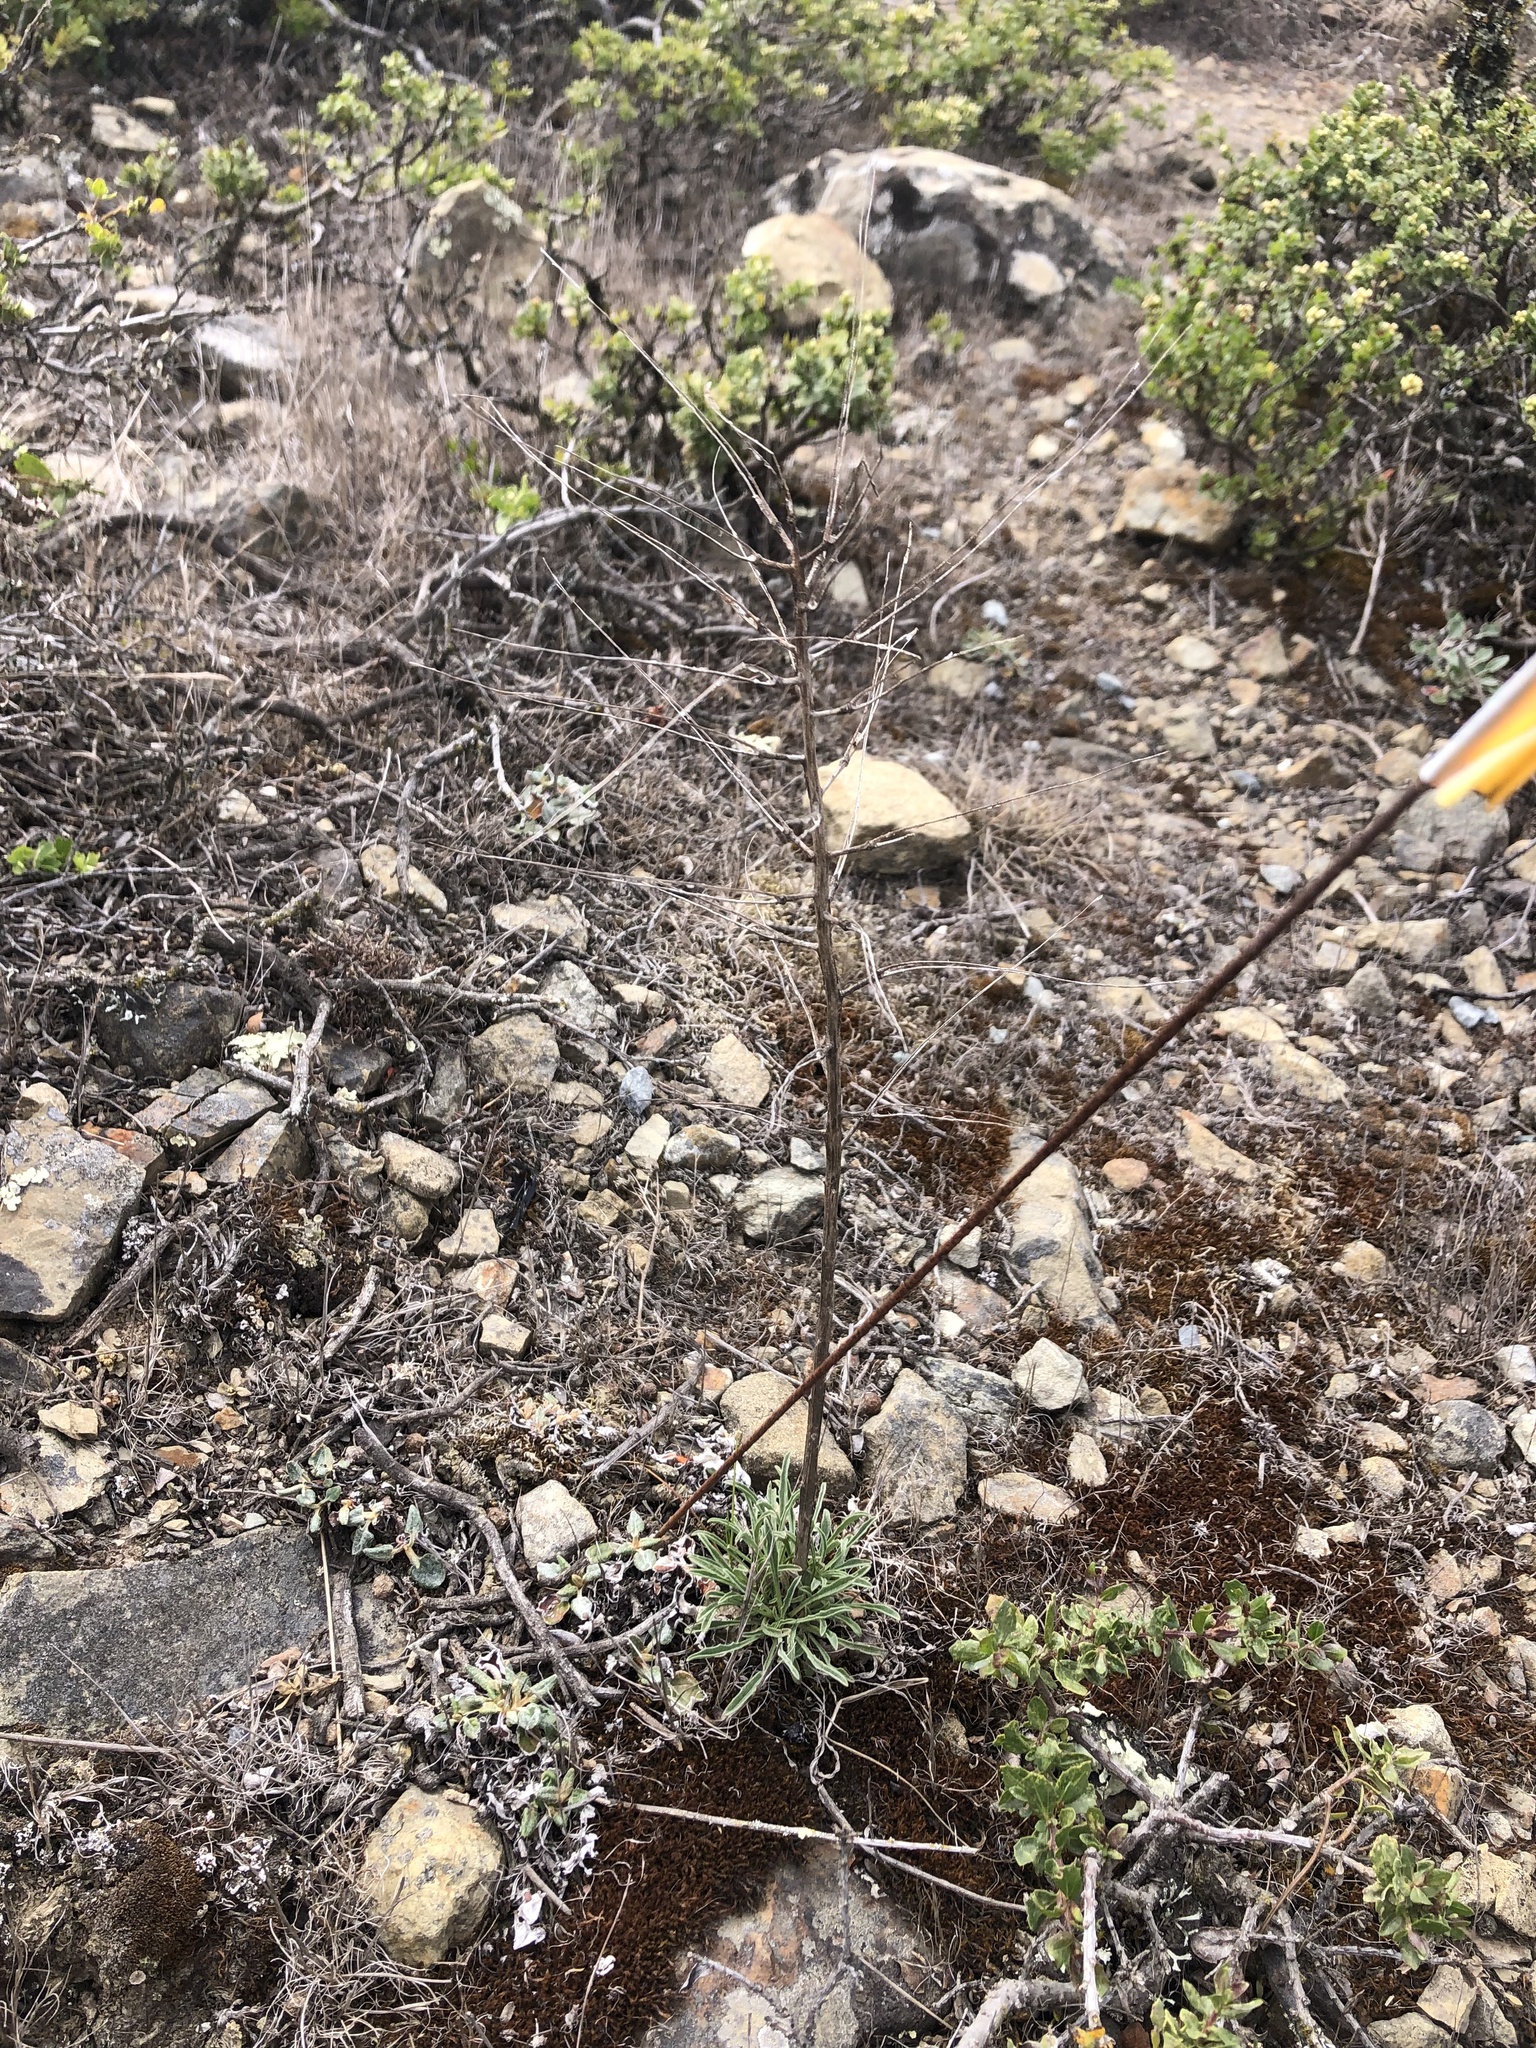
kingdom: Plantae
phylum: Tracheophyta
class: Magnoliopsida
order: Brassicales
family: Brassicaceae
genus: Erysimum
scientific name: Erysimum franciscanum
